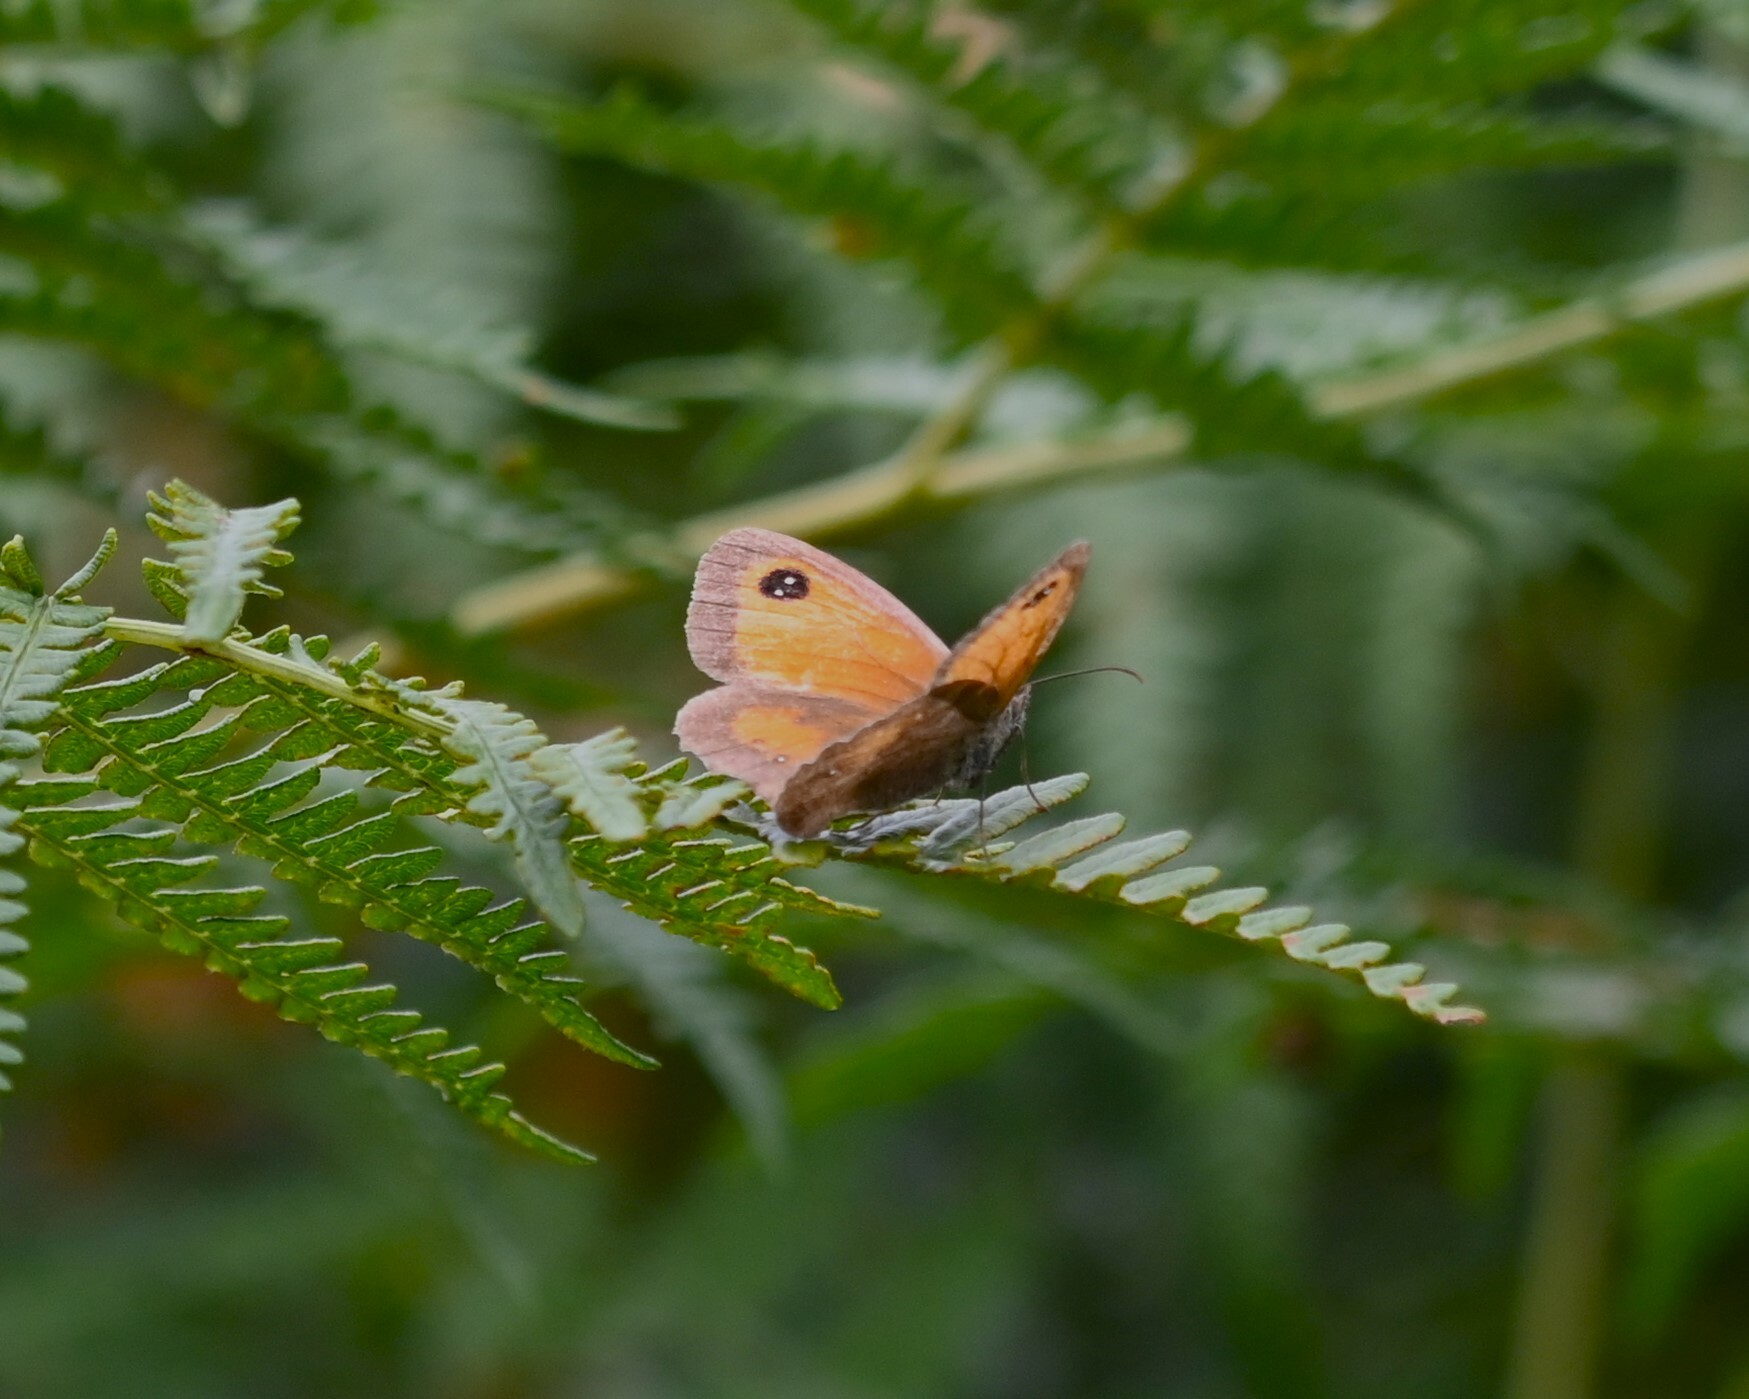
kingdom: Animalia
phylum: Arthropoda
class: Insecta
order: Lepidoptera
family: Nymphalidae
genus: Pyronia
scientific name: Pyronia tithonus
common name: Gatekeeper
